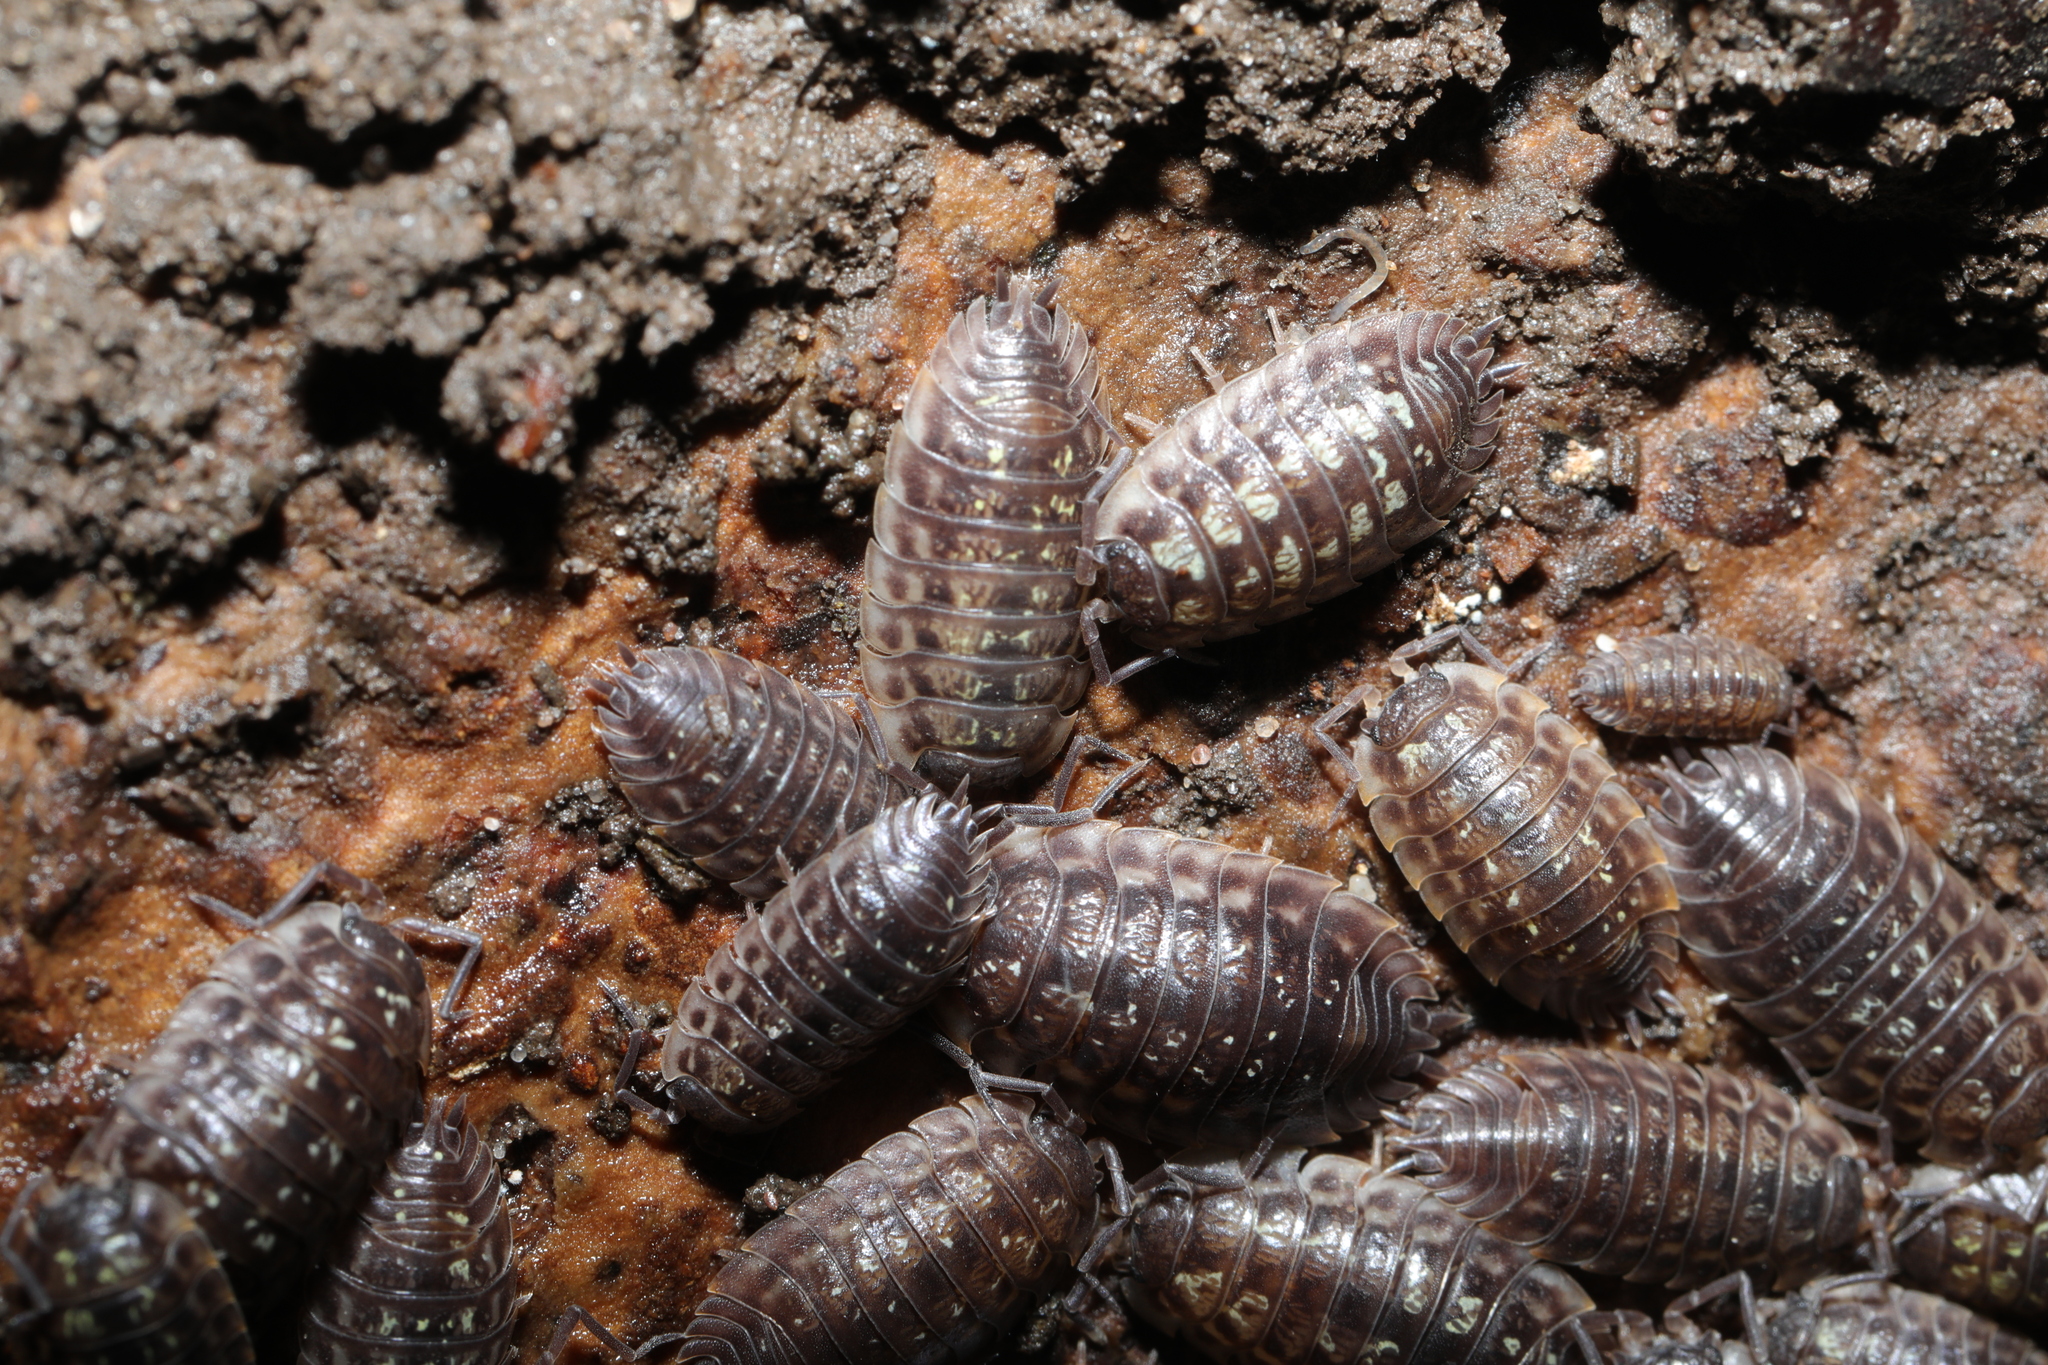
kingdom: Animalia
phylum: Arthropoda
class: Malacostraca
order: Isopoda
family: Oniscidae
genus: Oniscus
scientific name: Oniscus asellus
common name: Common shiny woodlouse
